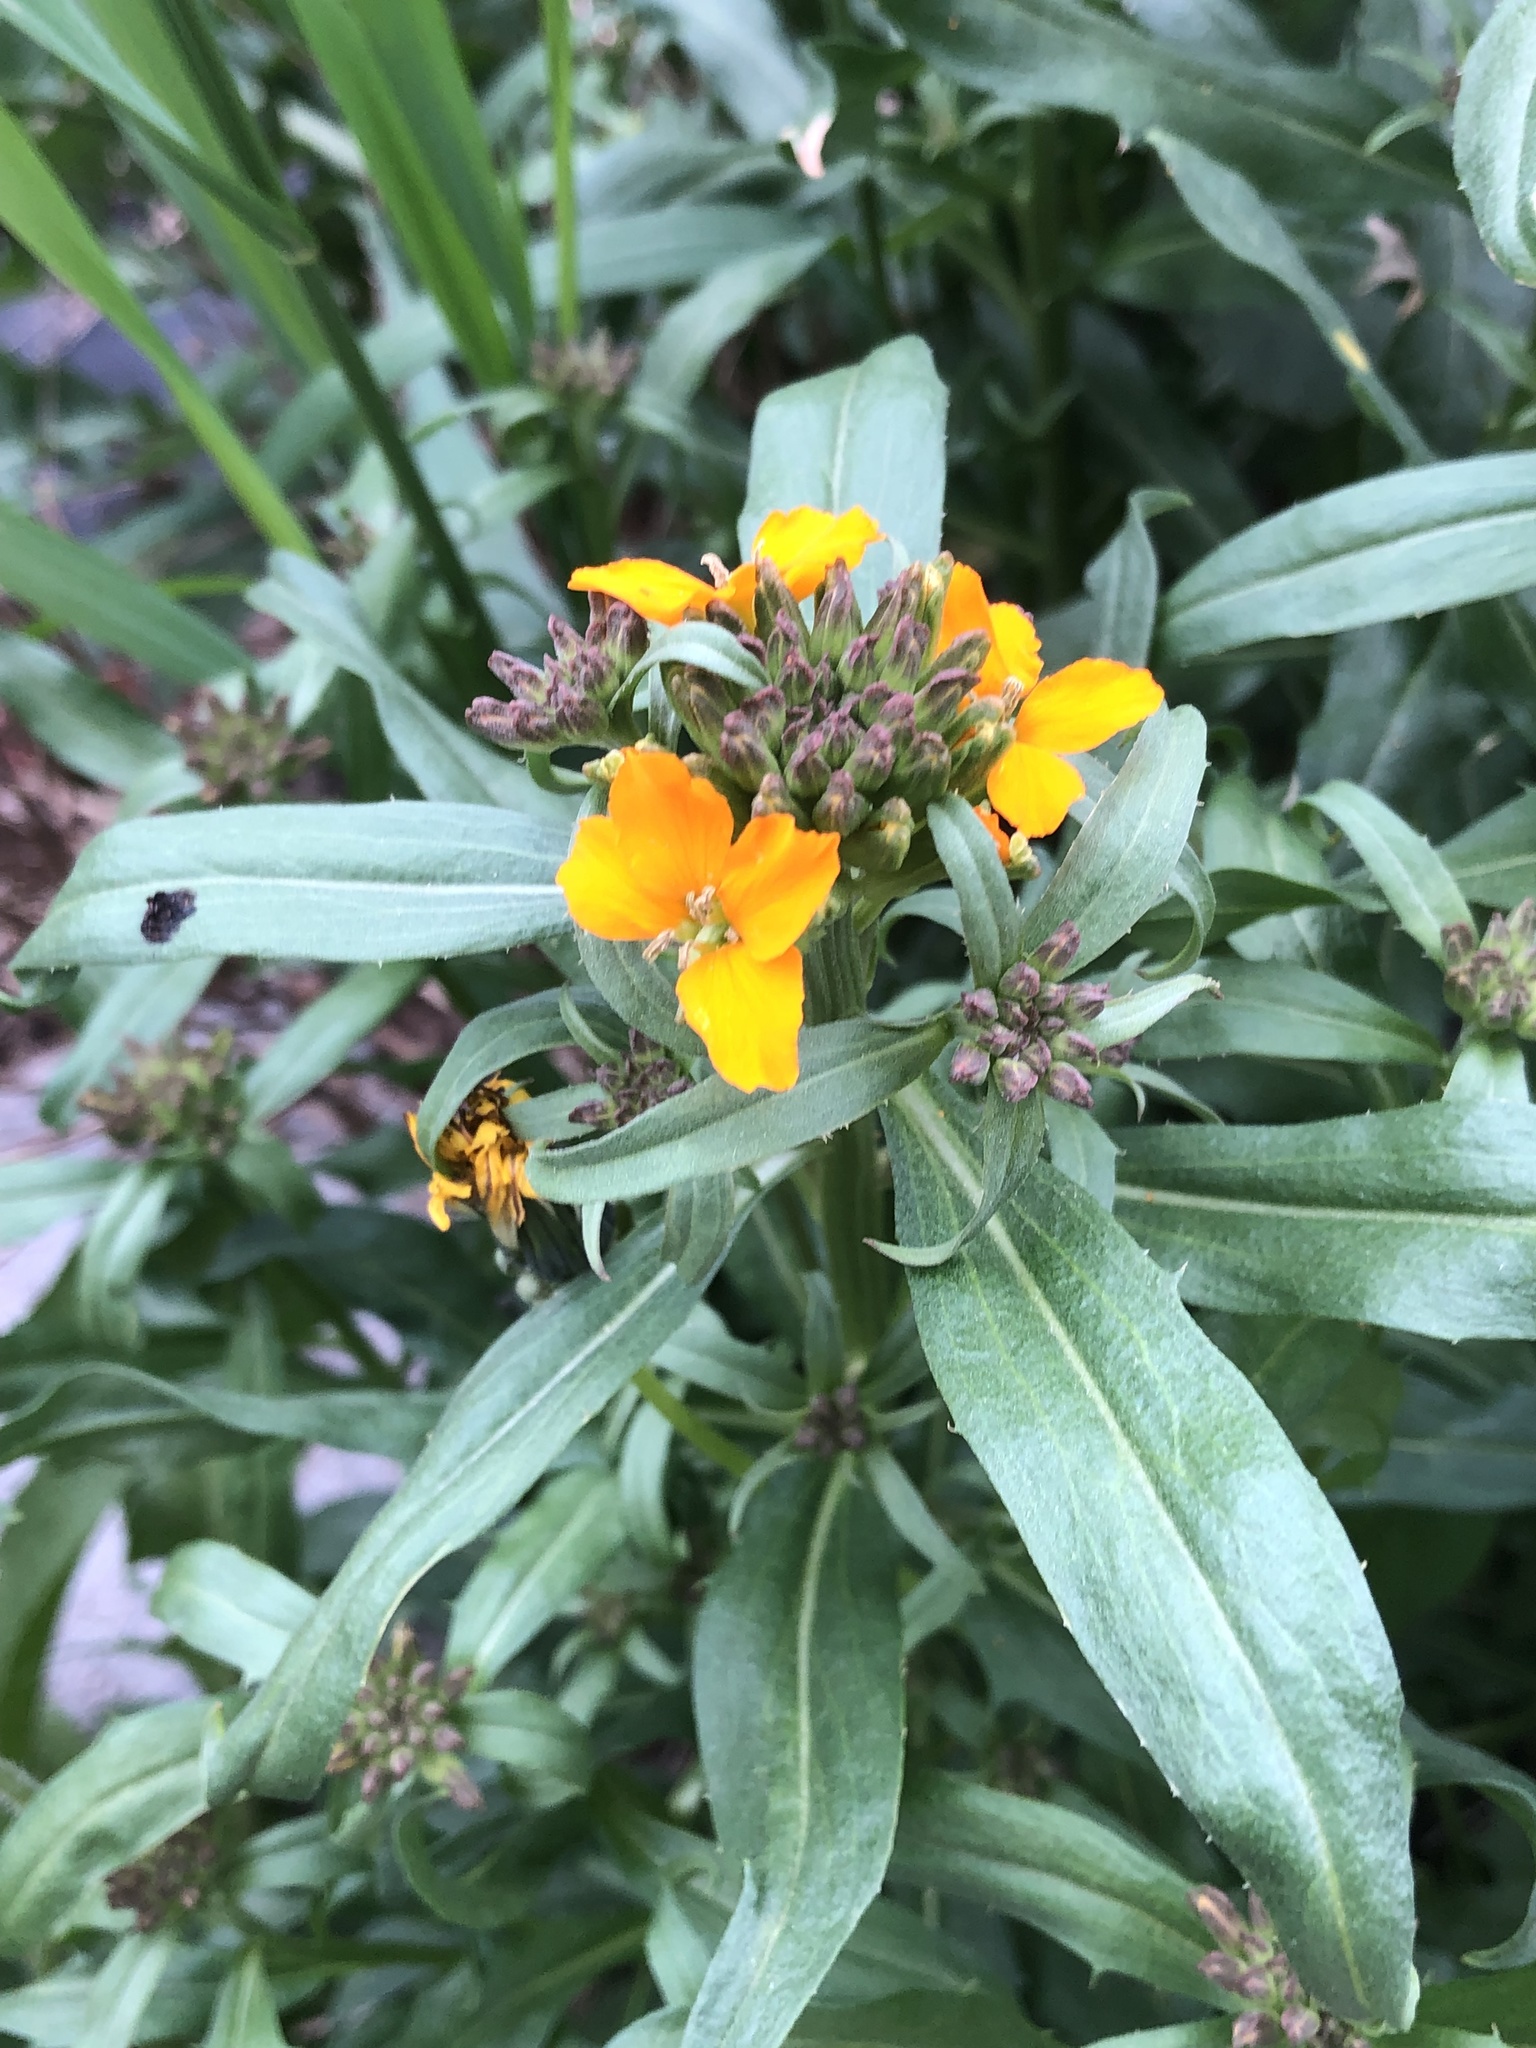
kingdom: Plantae
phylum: Tracheophyta
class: Magnoliopsida
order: Brassicales
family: Brassicaceae
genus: Erysimum
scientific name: Erysimum capitatum
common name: Western wallflower
